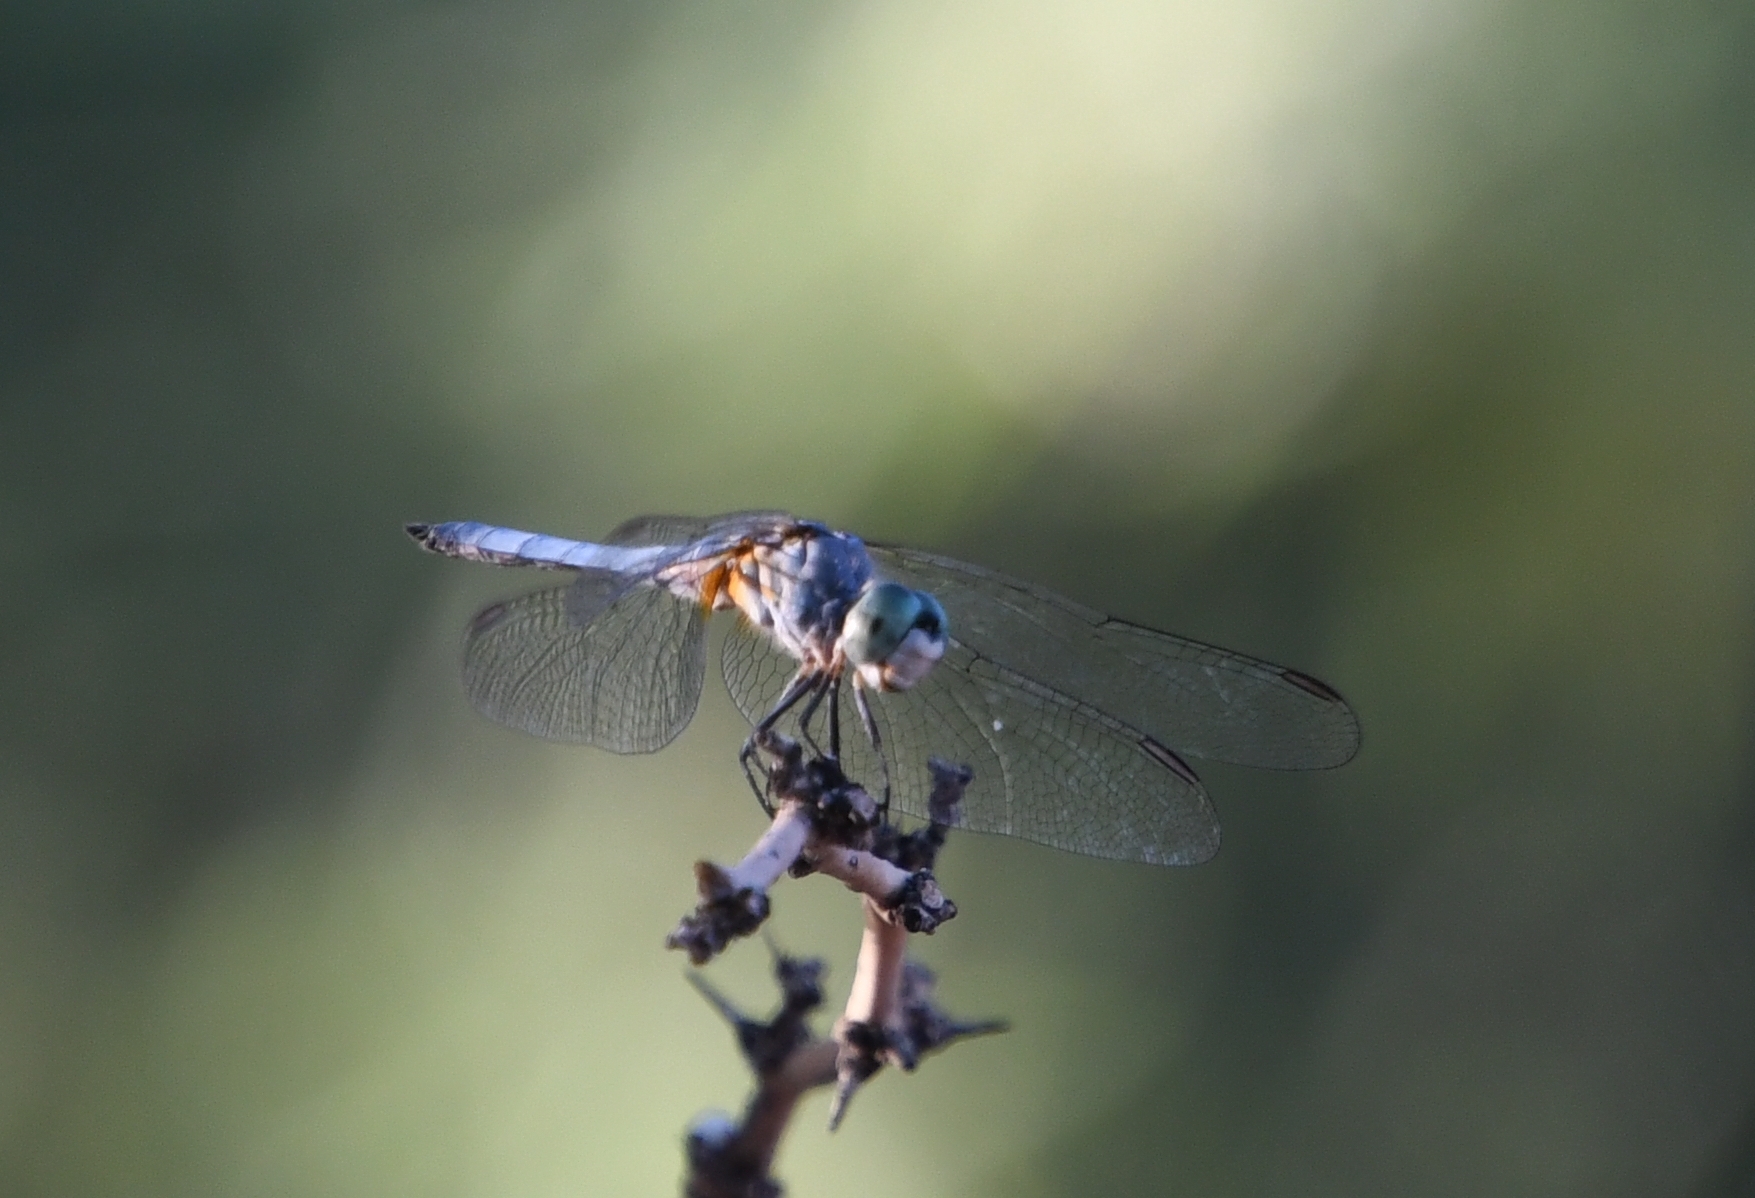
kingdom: Animalia
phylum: Arthropoda
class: Insecta
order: Odonata
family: Libellulidae
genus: Pachydiplax
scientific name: Pachydiplax longipennis
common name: Blue dasher
